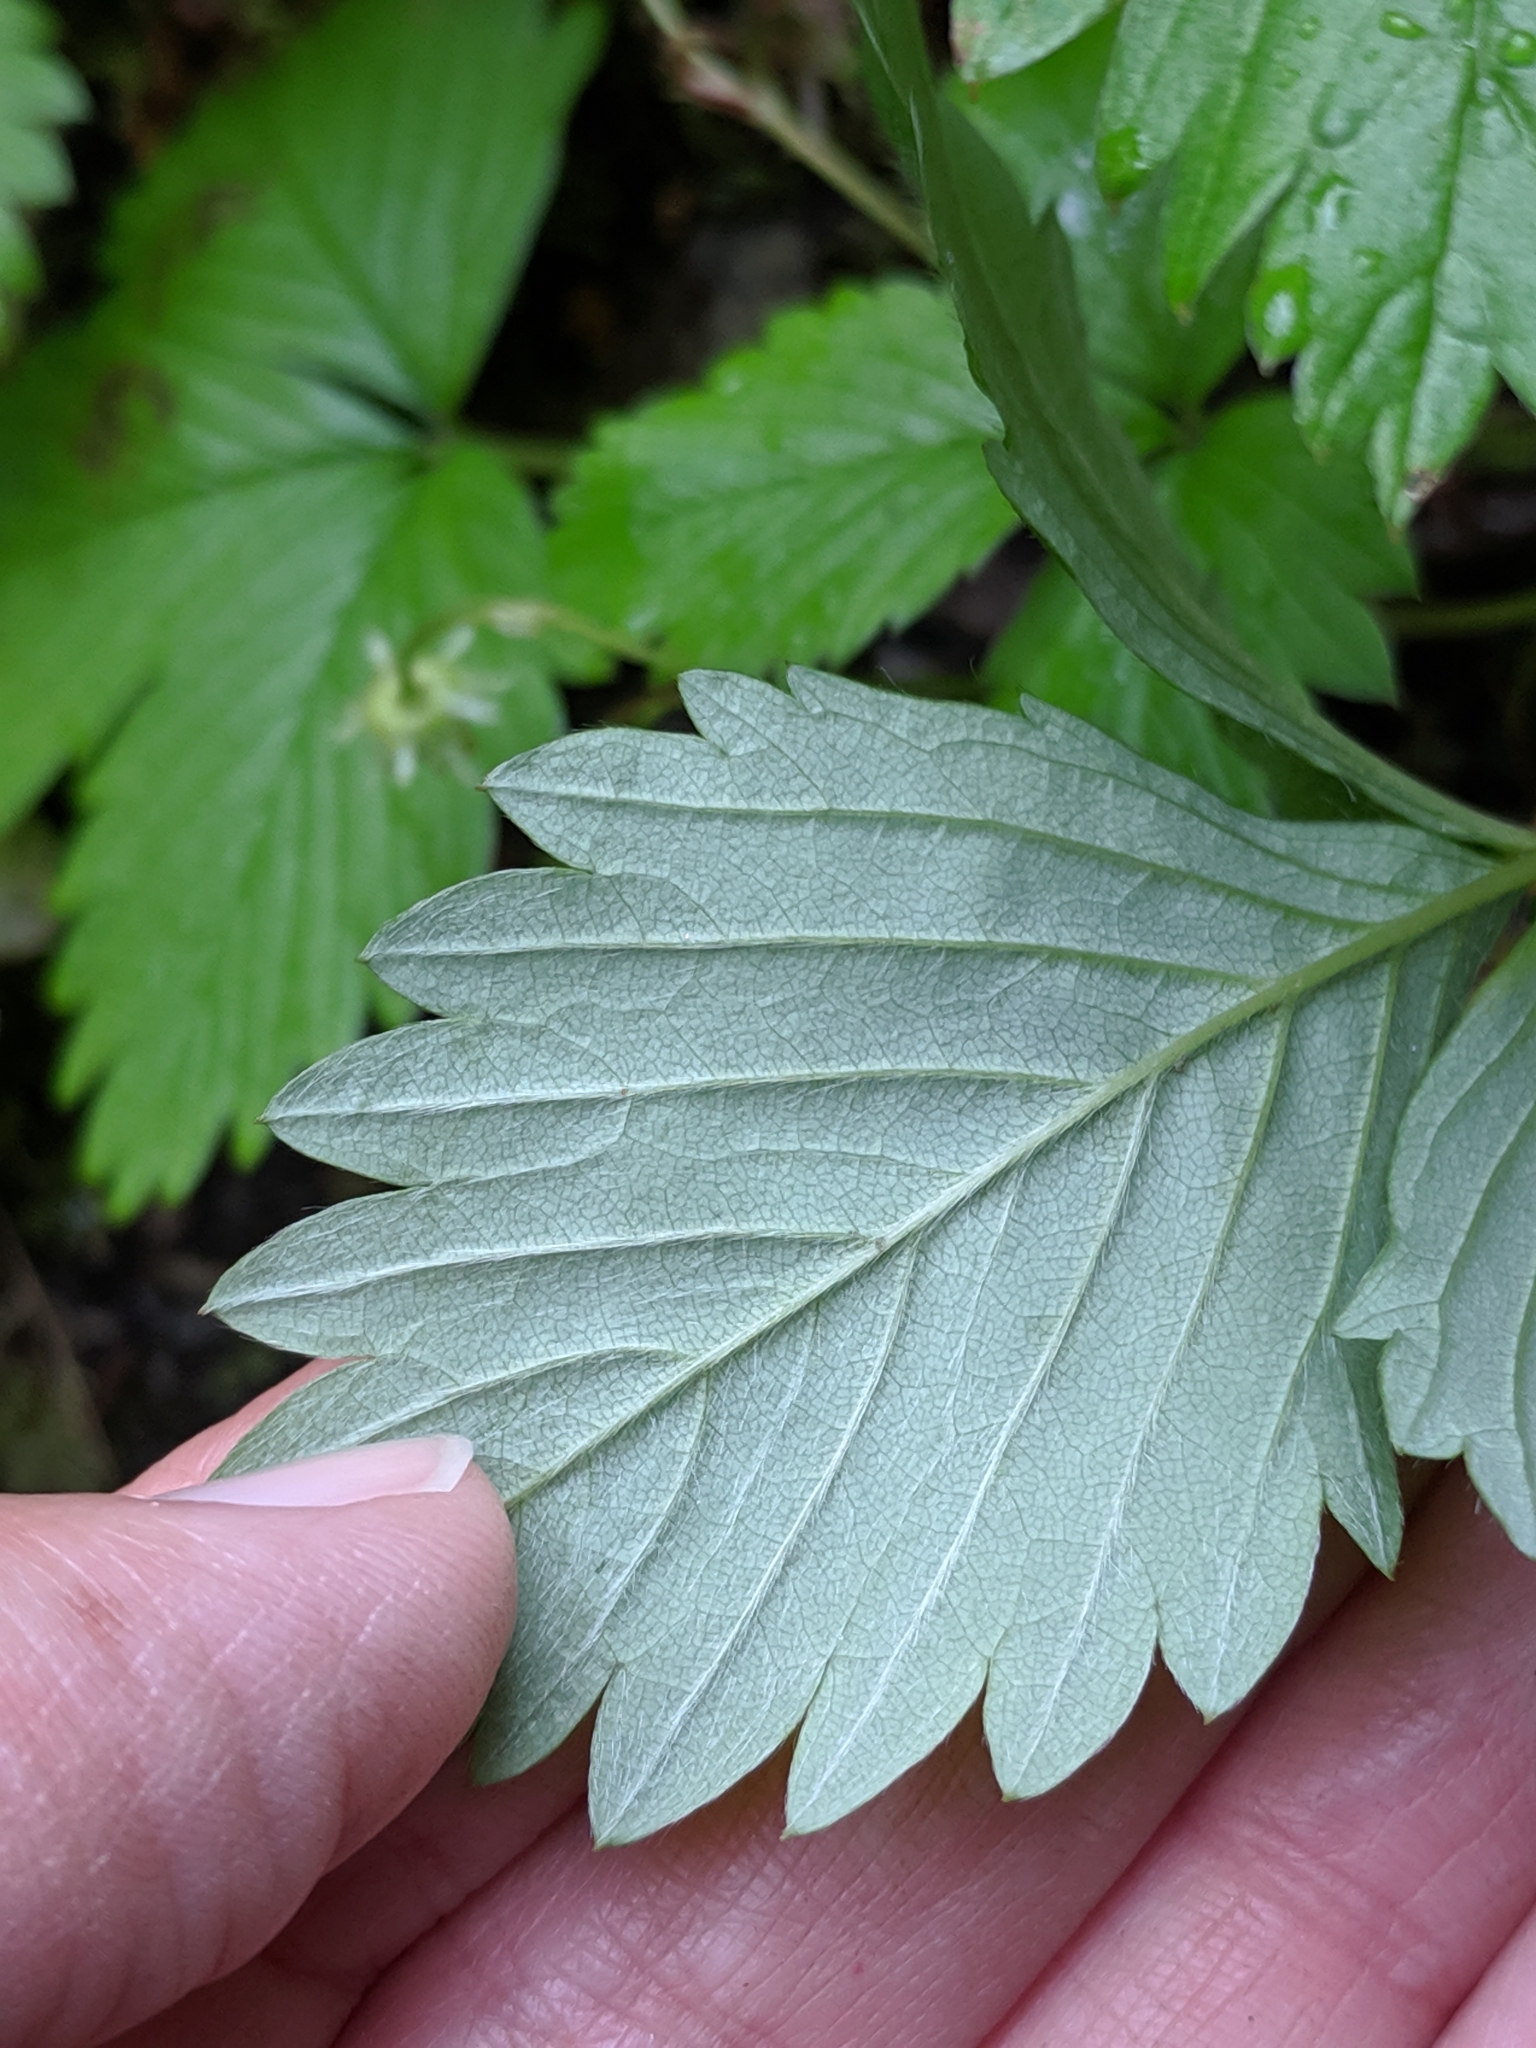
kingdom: Plantae
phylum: Tracheophyta
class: Magnoliopsida
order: Rosales
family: Rosaceae
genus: Fragaria
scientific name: Fragaria vesca
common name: Wild strawberry
